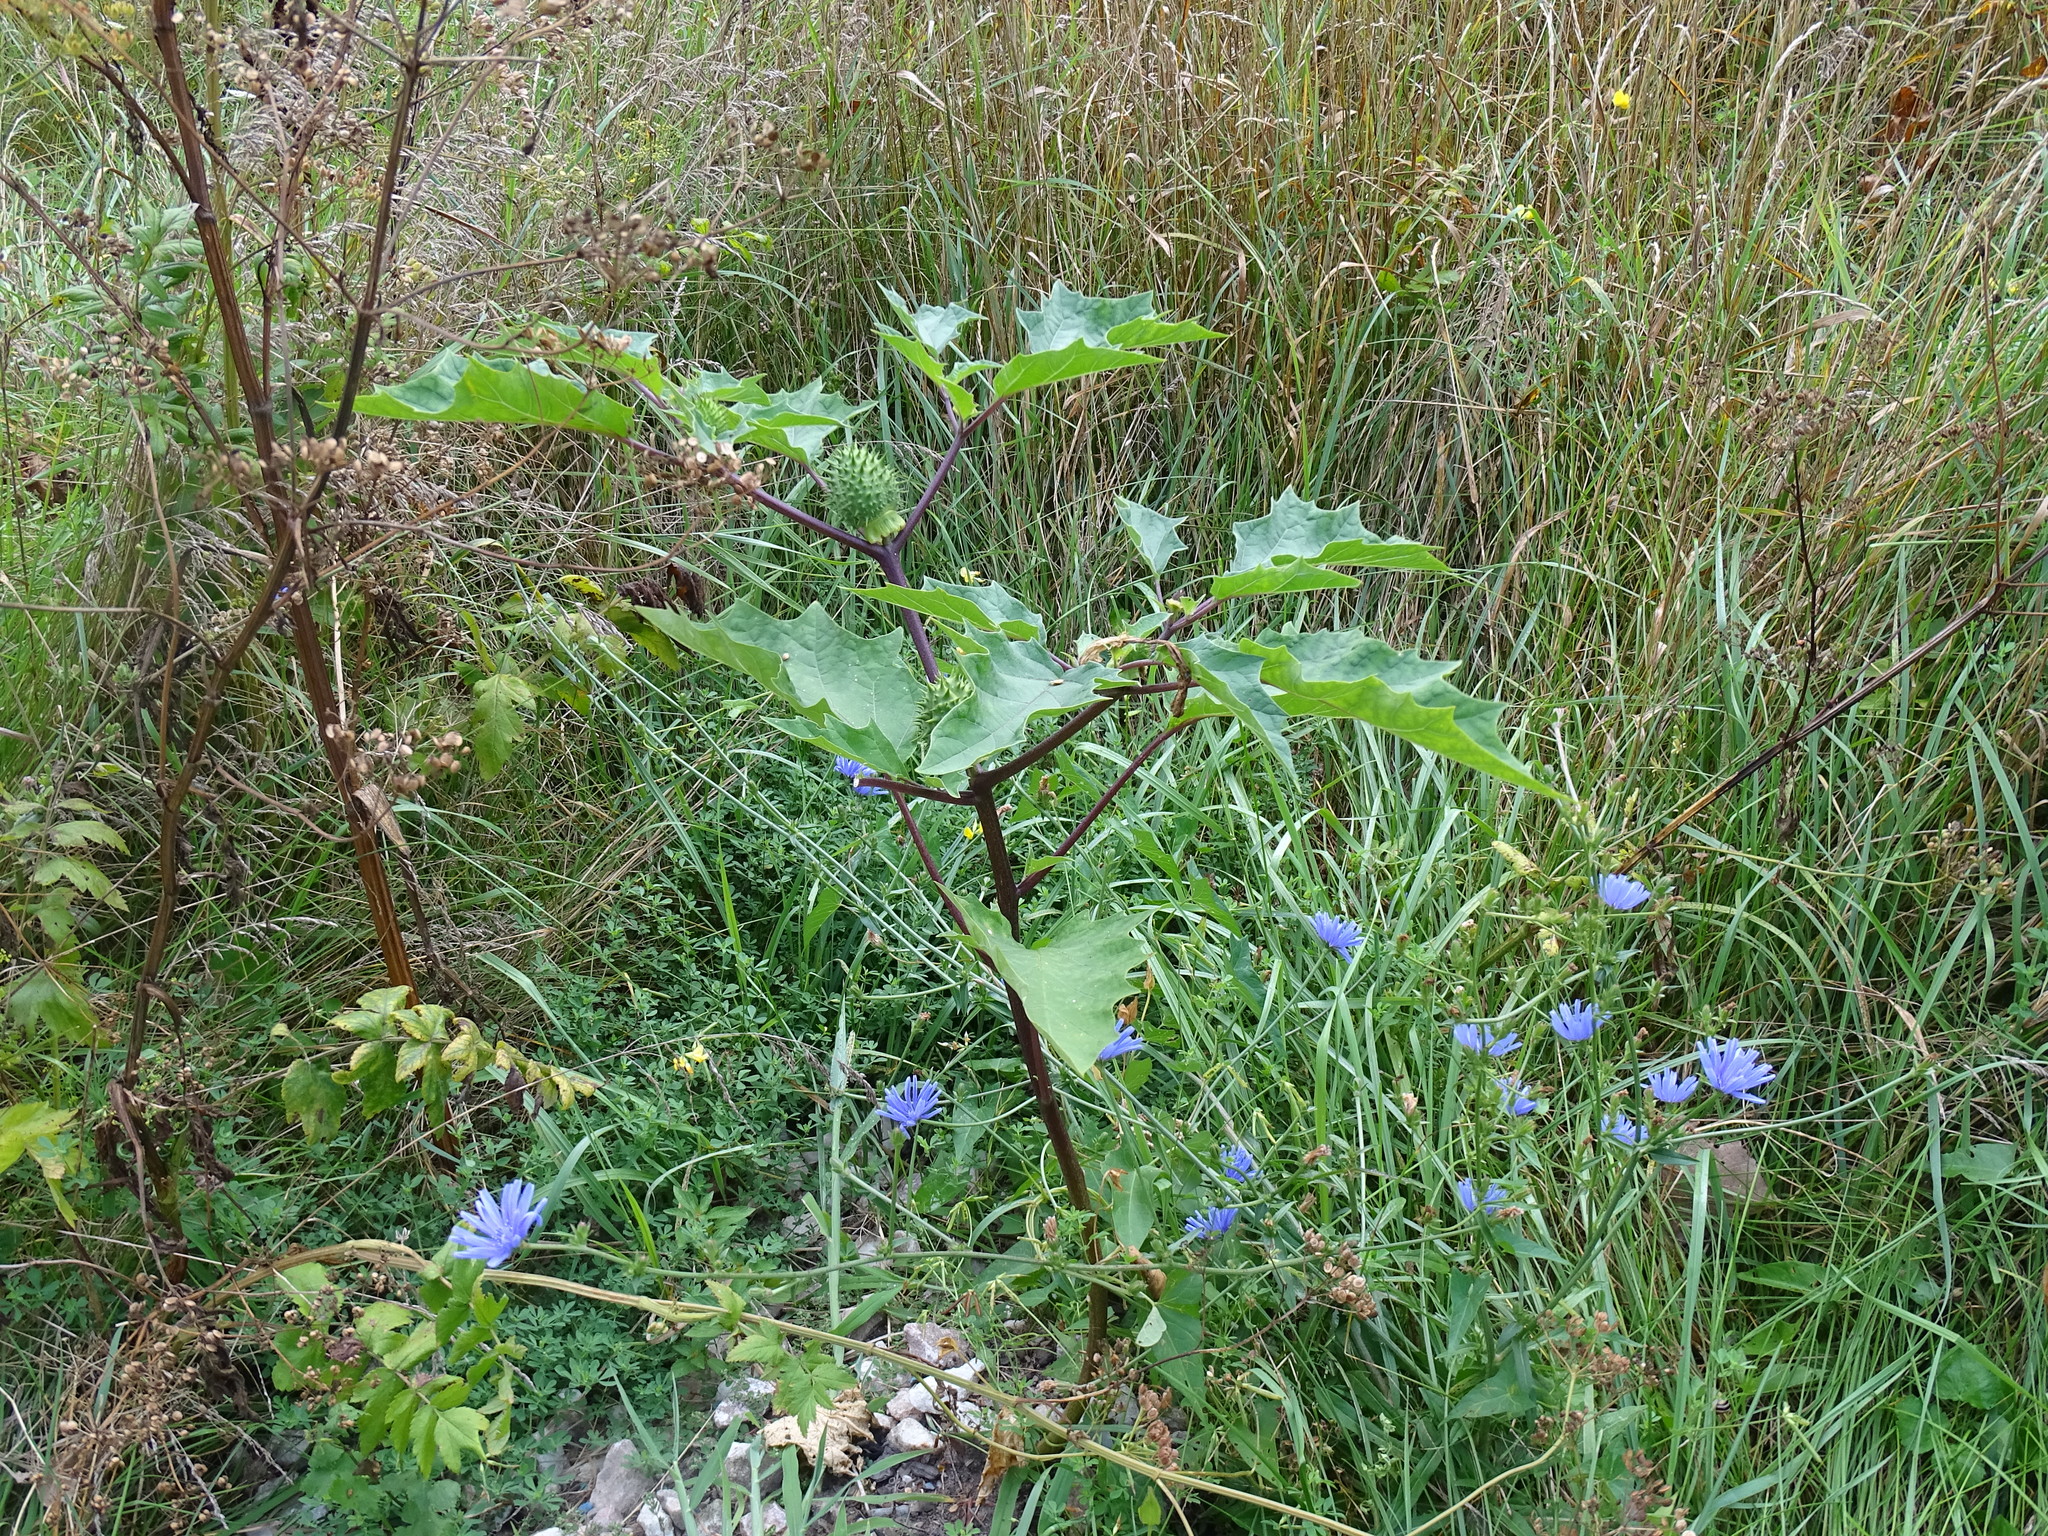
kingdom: Plantae
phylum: Tracheophyta
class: Magnoliopsida
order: Solanales
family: Solanaceae
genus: Datura
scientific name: Datura stramonium
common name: Thorn-apple
